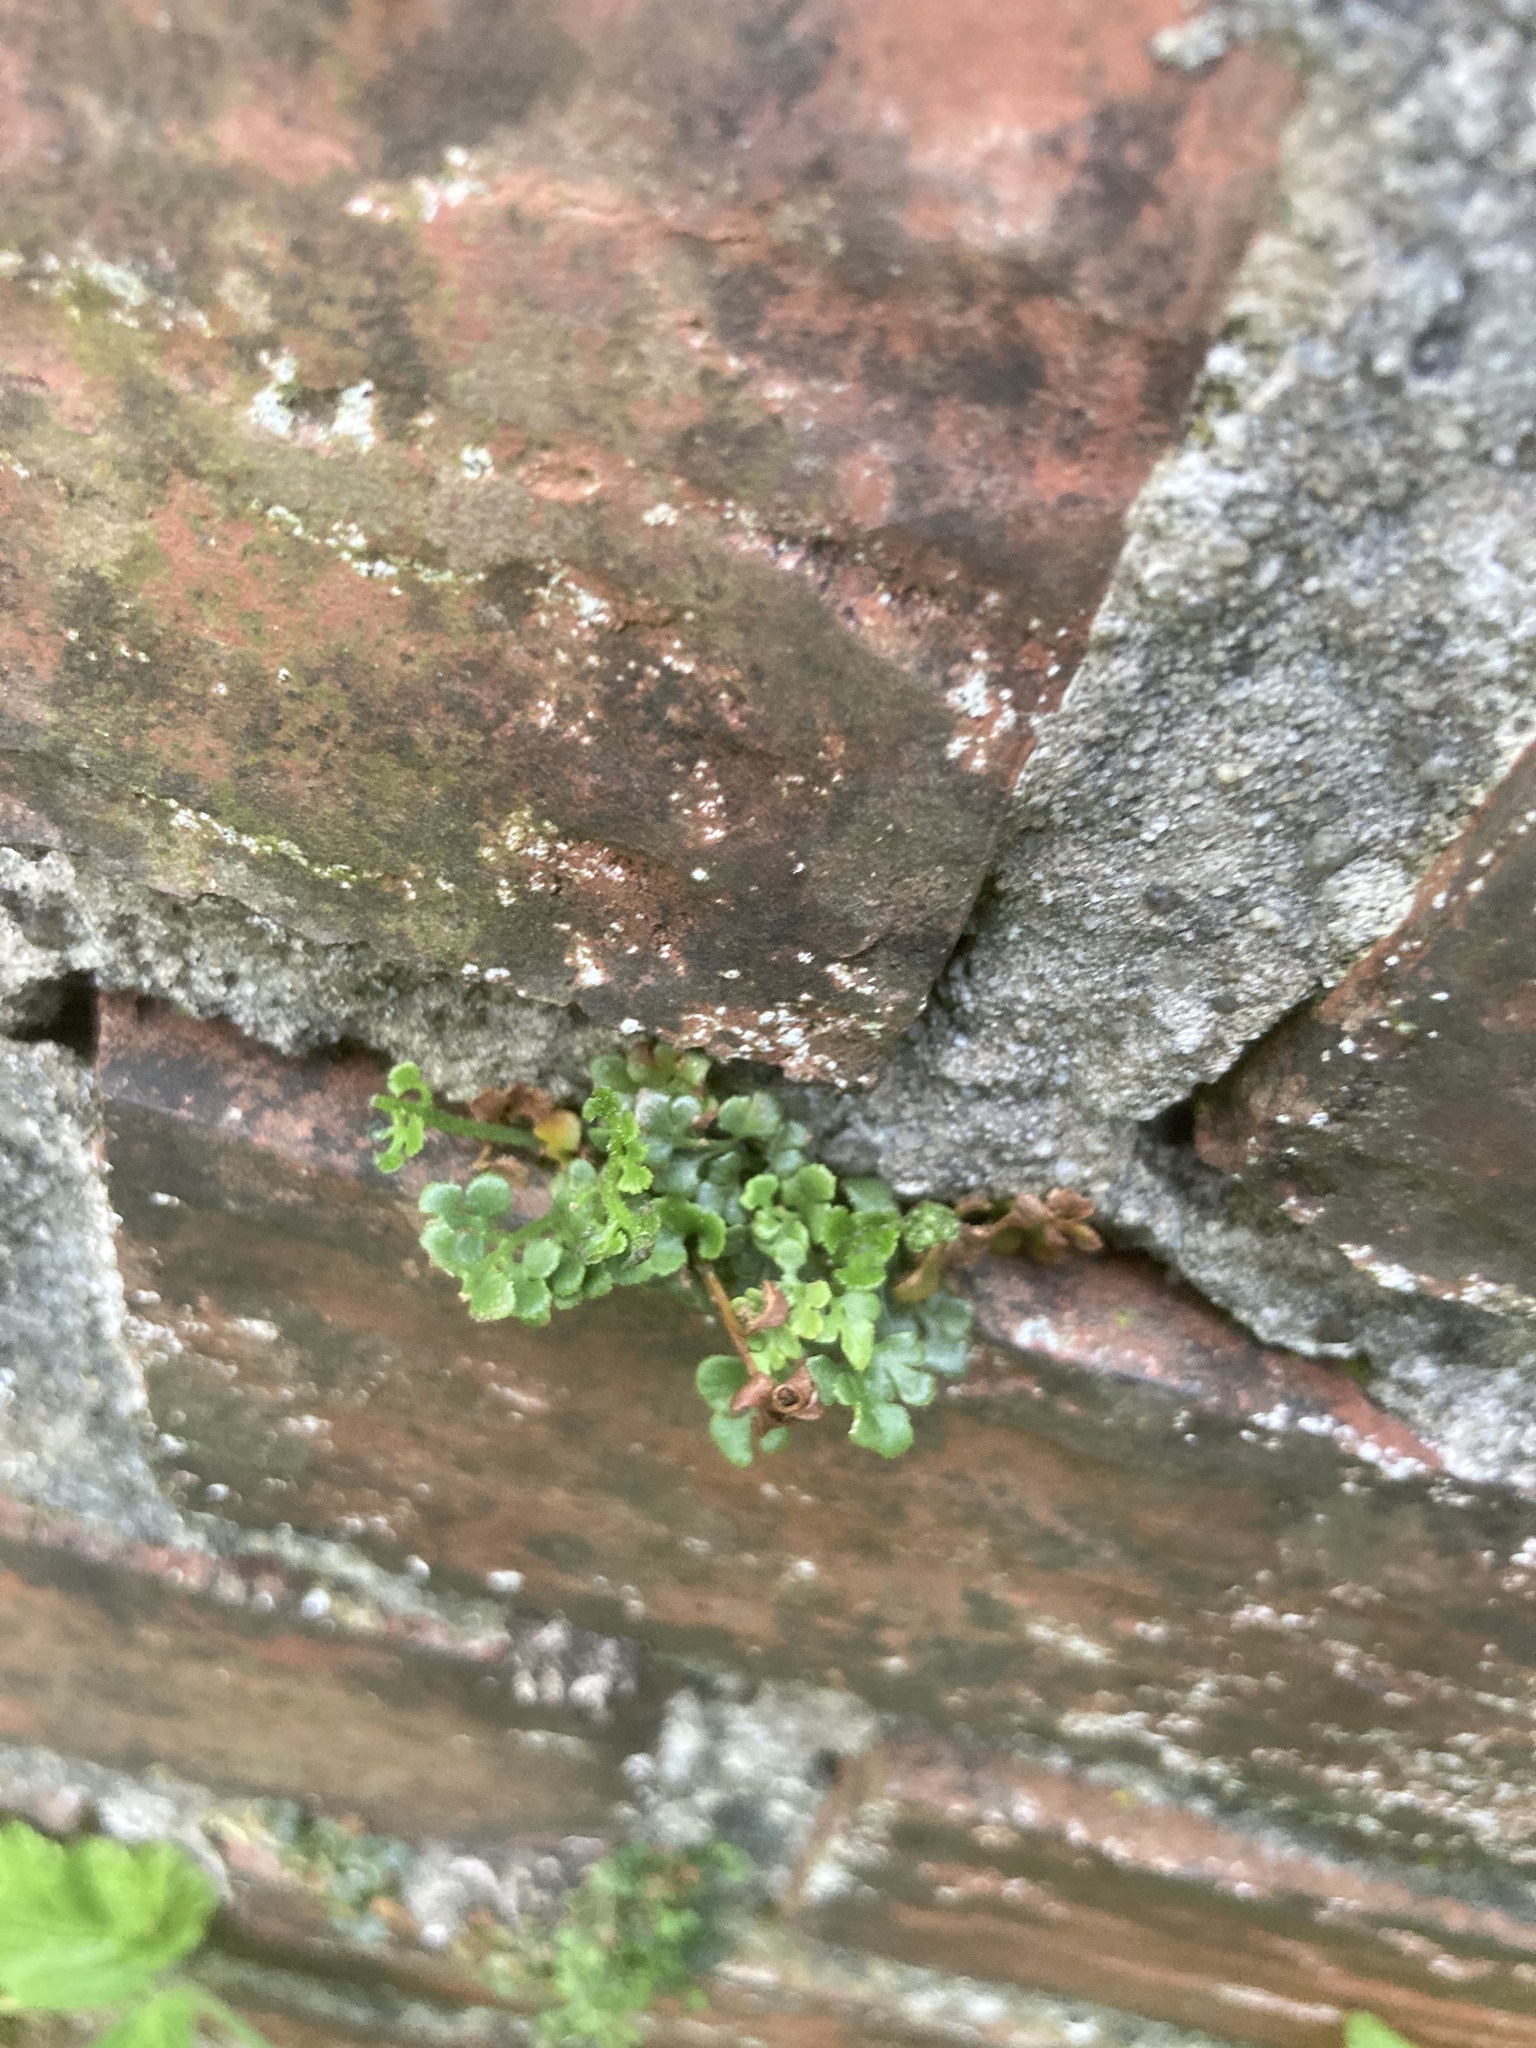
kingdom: Plantae
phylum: Tracheophyta
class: Polypodiopsida
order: Polypodiales
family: Aspleniaceae
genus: Asplenium
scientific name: Asplenium ruta-muraria
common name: Wall-rue
